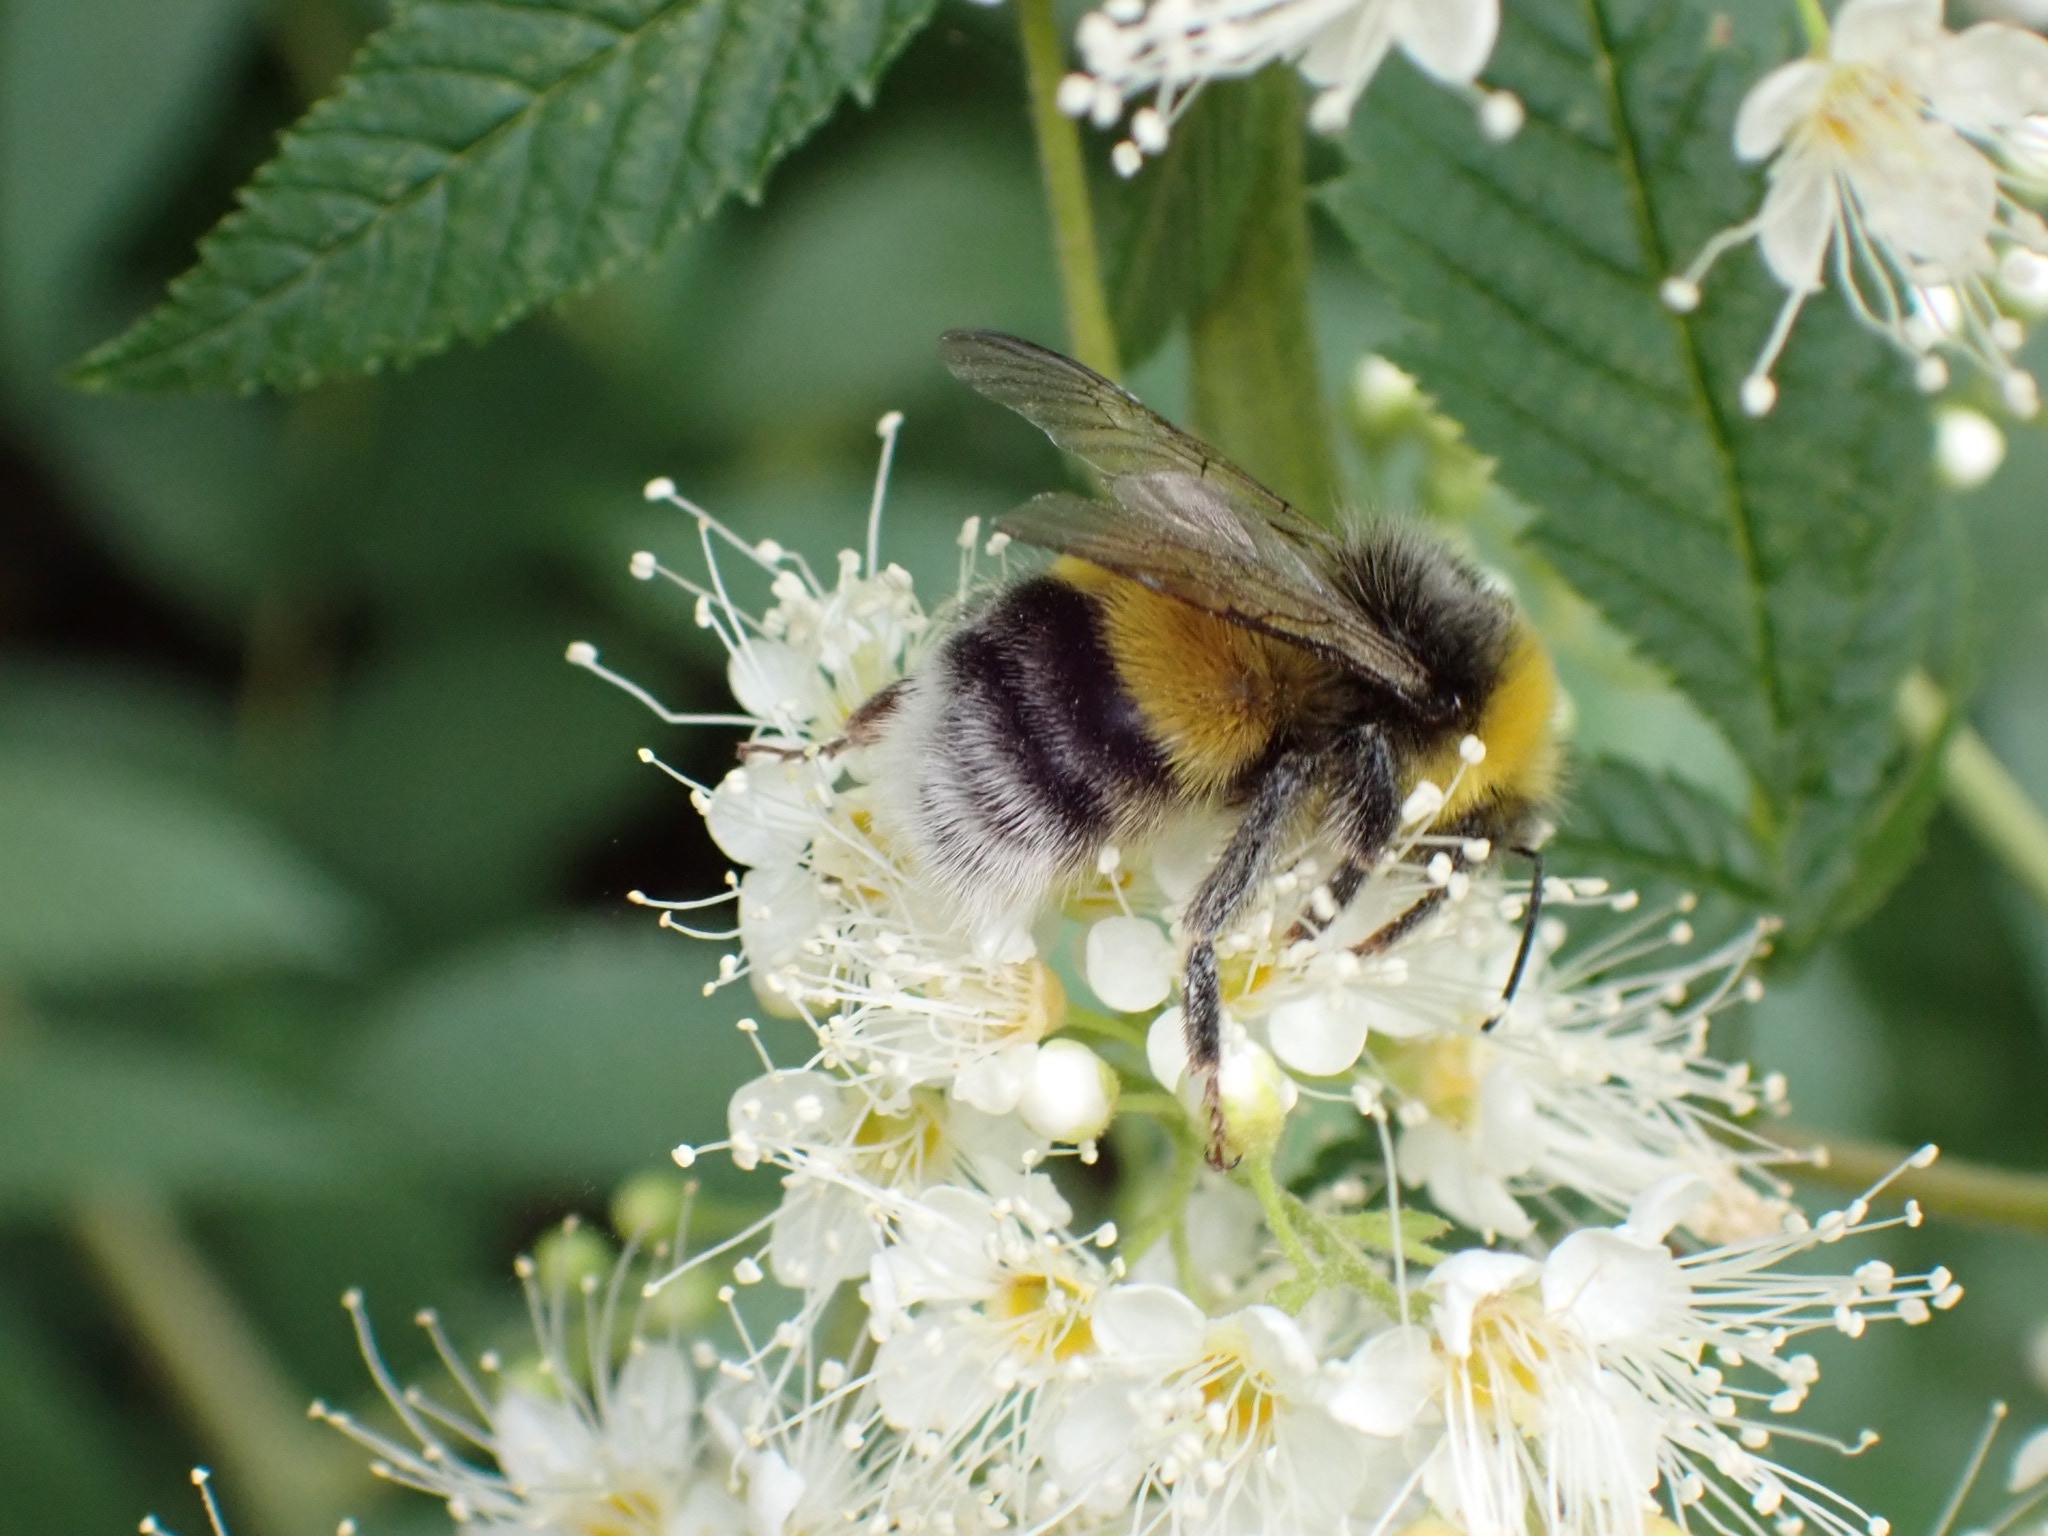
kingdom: Animalia
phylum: Arthropoda
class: Insecta
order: Hymenoptera
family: Apidae
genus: Bombus
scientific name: Bombus lucorum
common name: White-tailed bumblebee
